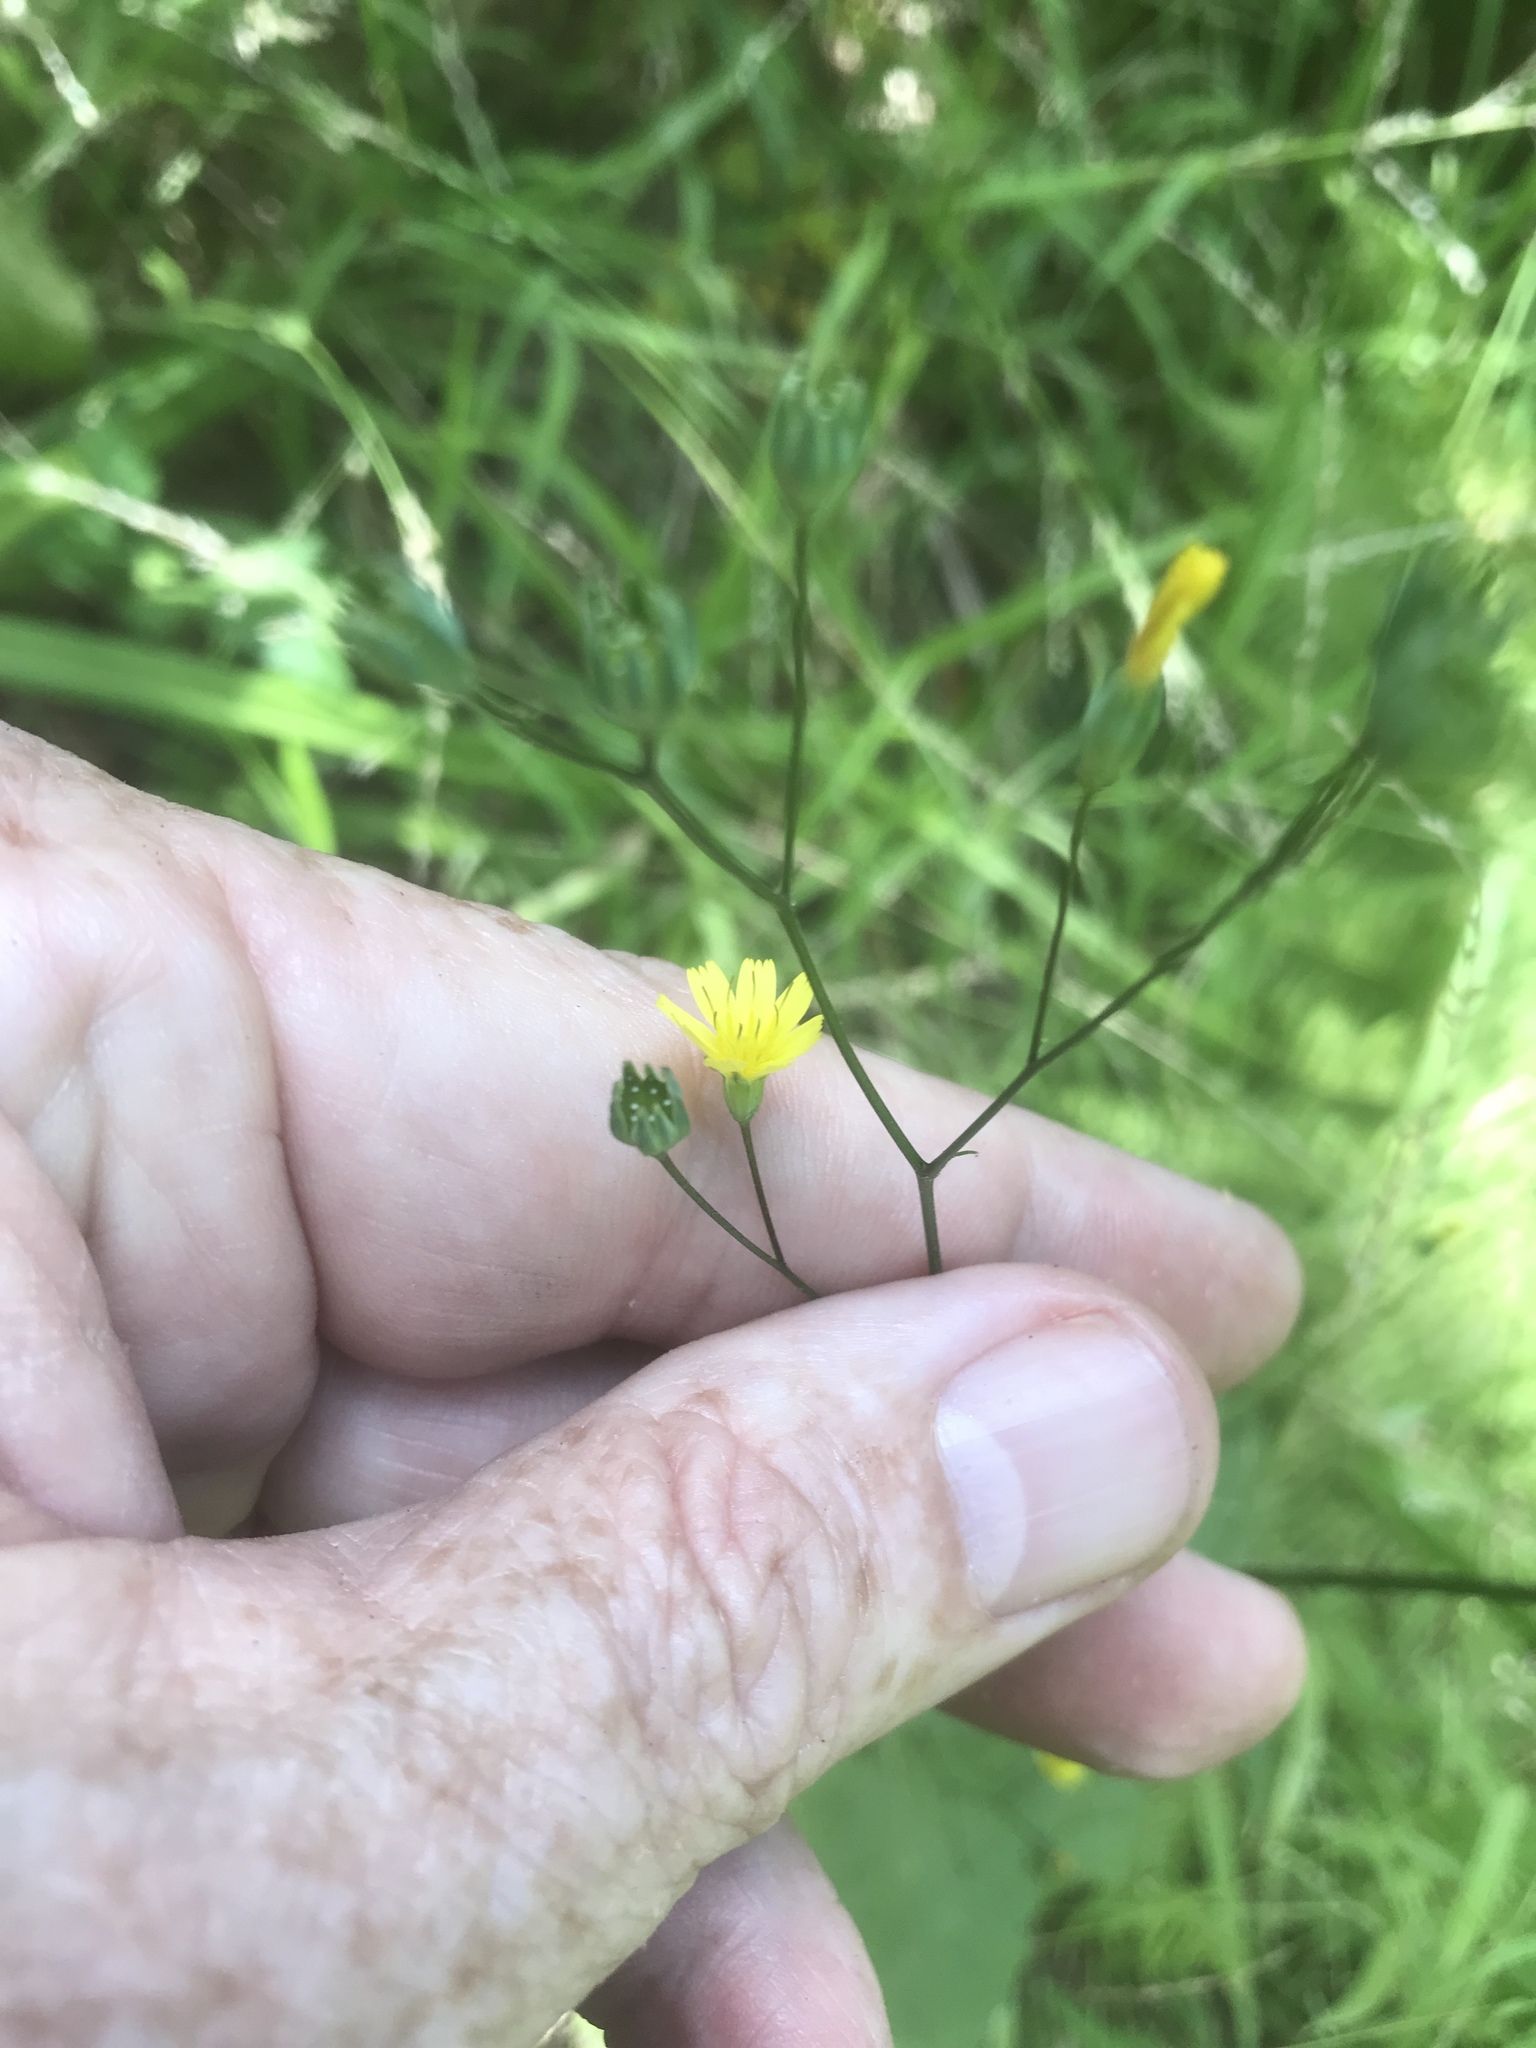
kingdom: Plantae
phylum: Tracheophyta
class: Magnoliopsida
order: Asterales
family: Asteraceae
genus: Lapsana
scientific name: Lapsana communis
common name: Nipplewort
